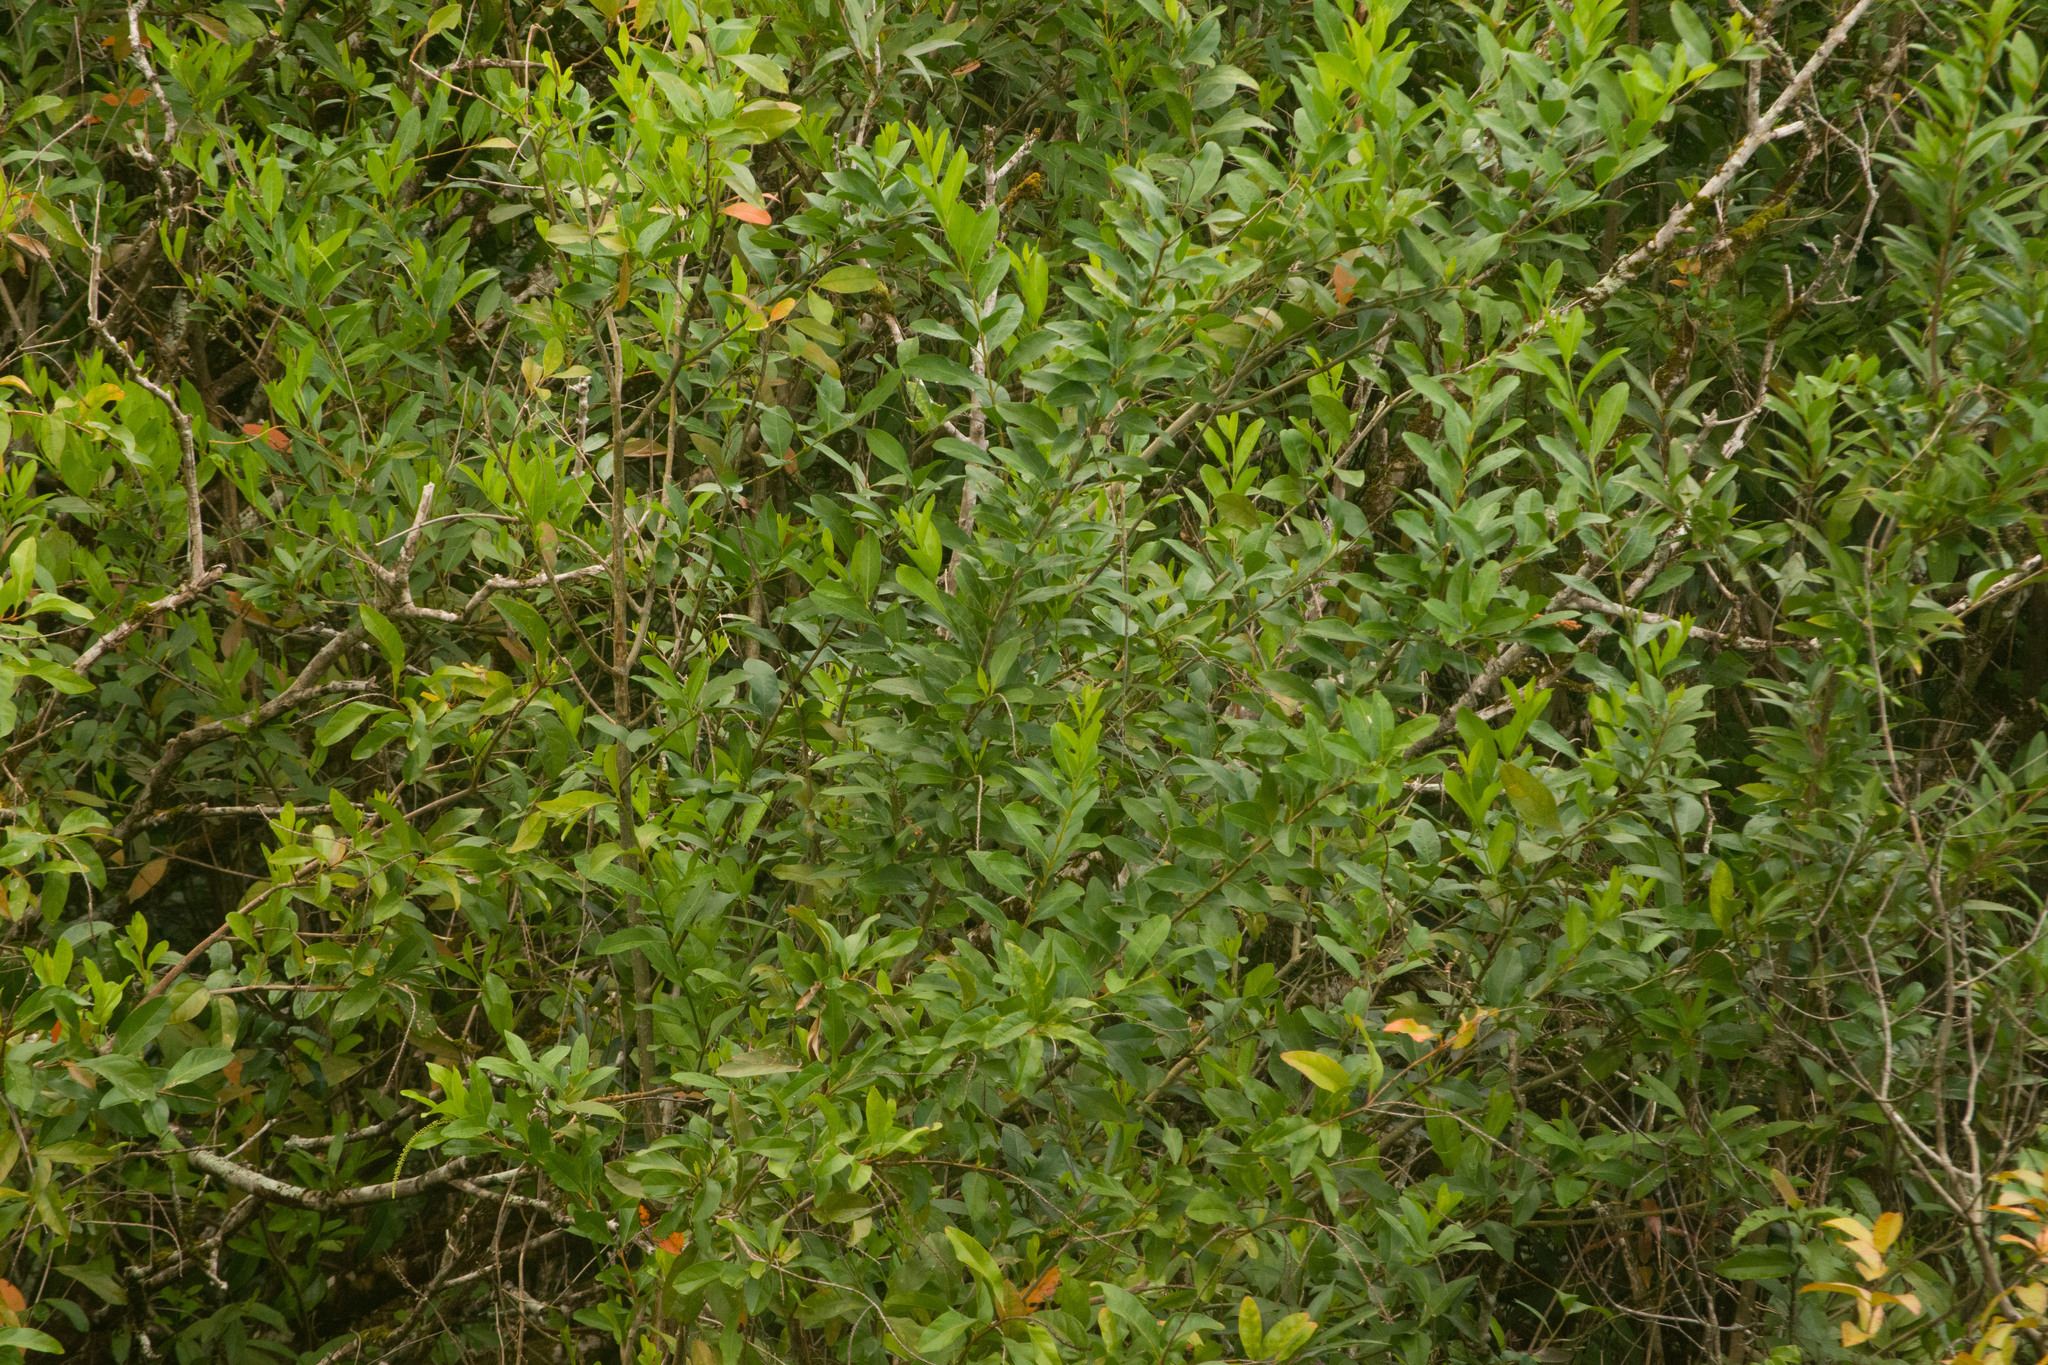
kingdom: Plantae
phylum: Tracheophyta
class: Magnoliopsida
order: Lamiales
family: Verbenaceae
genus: Citharexylum
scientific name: Citharexylum caudatum
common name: Fiddlewood
